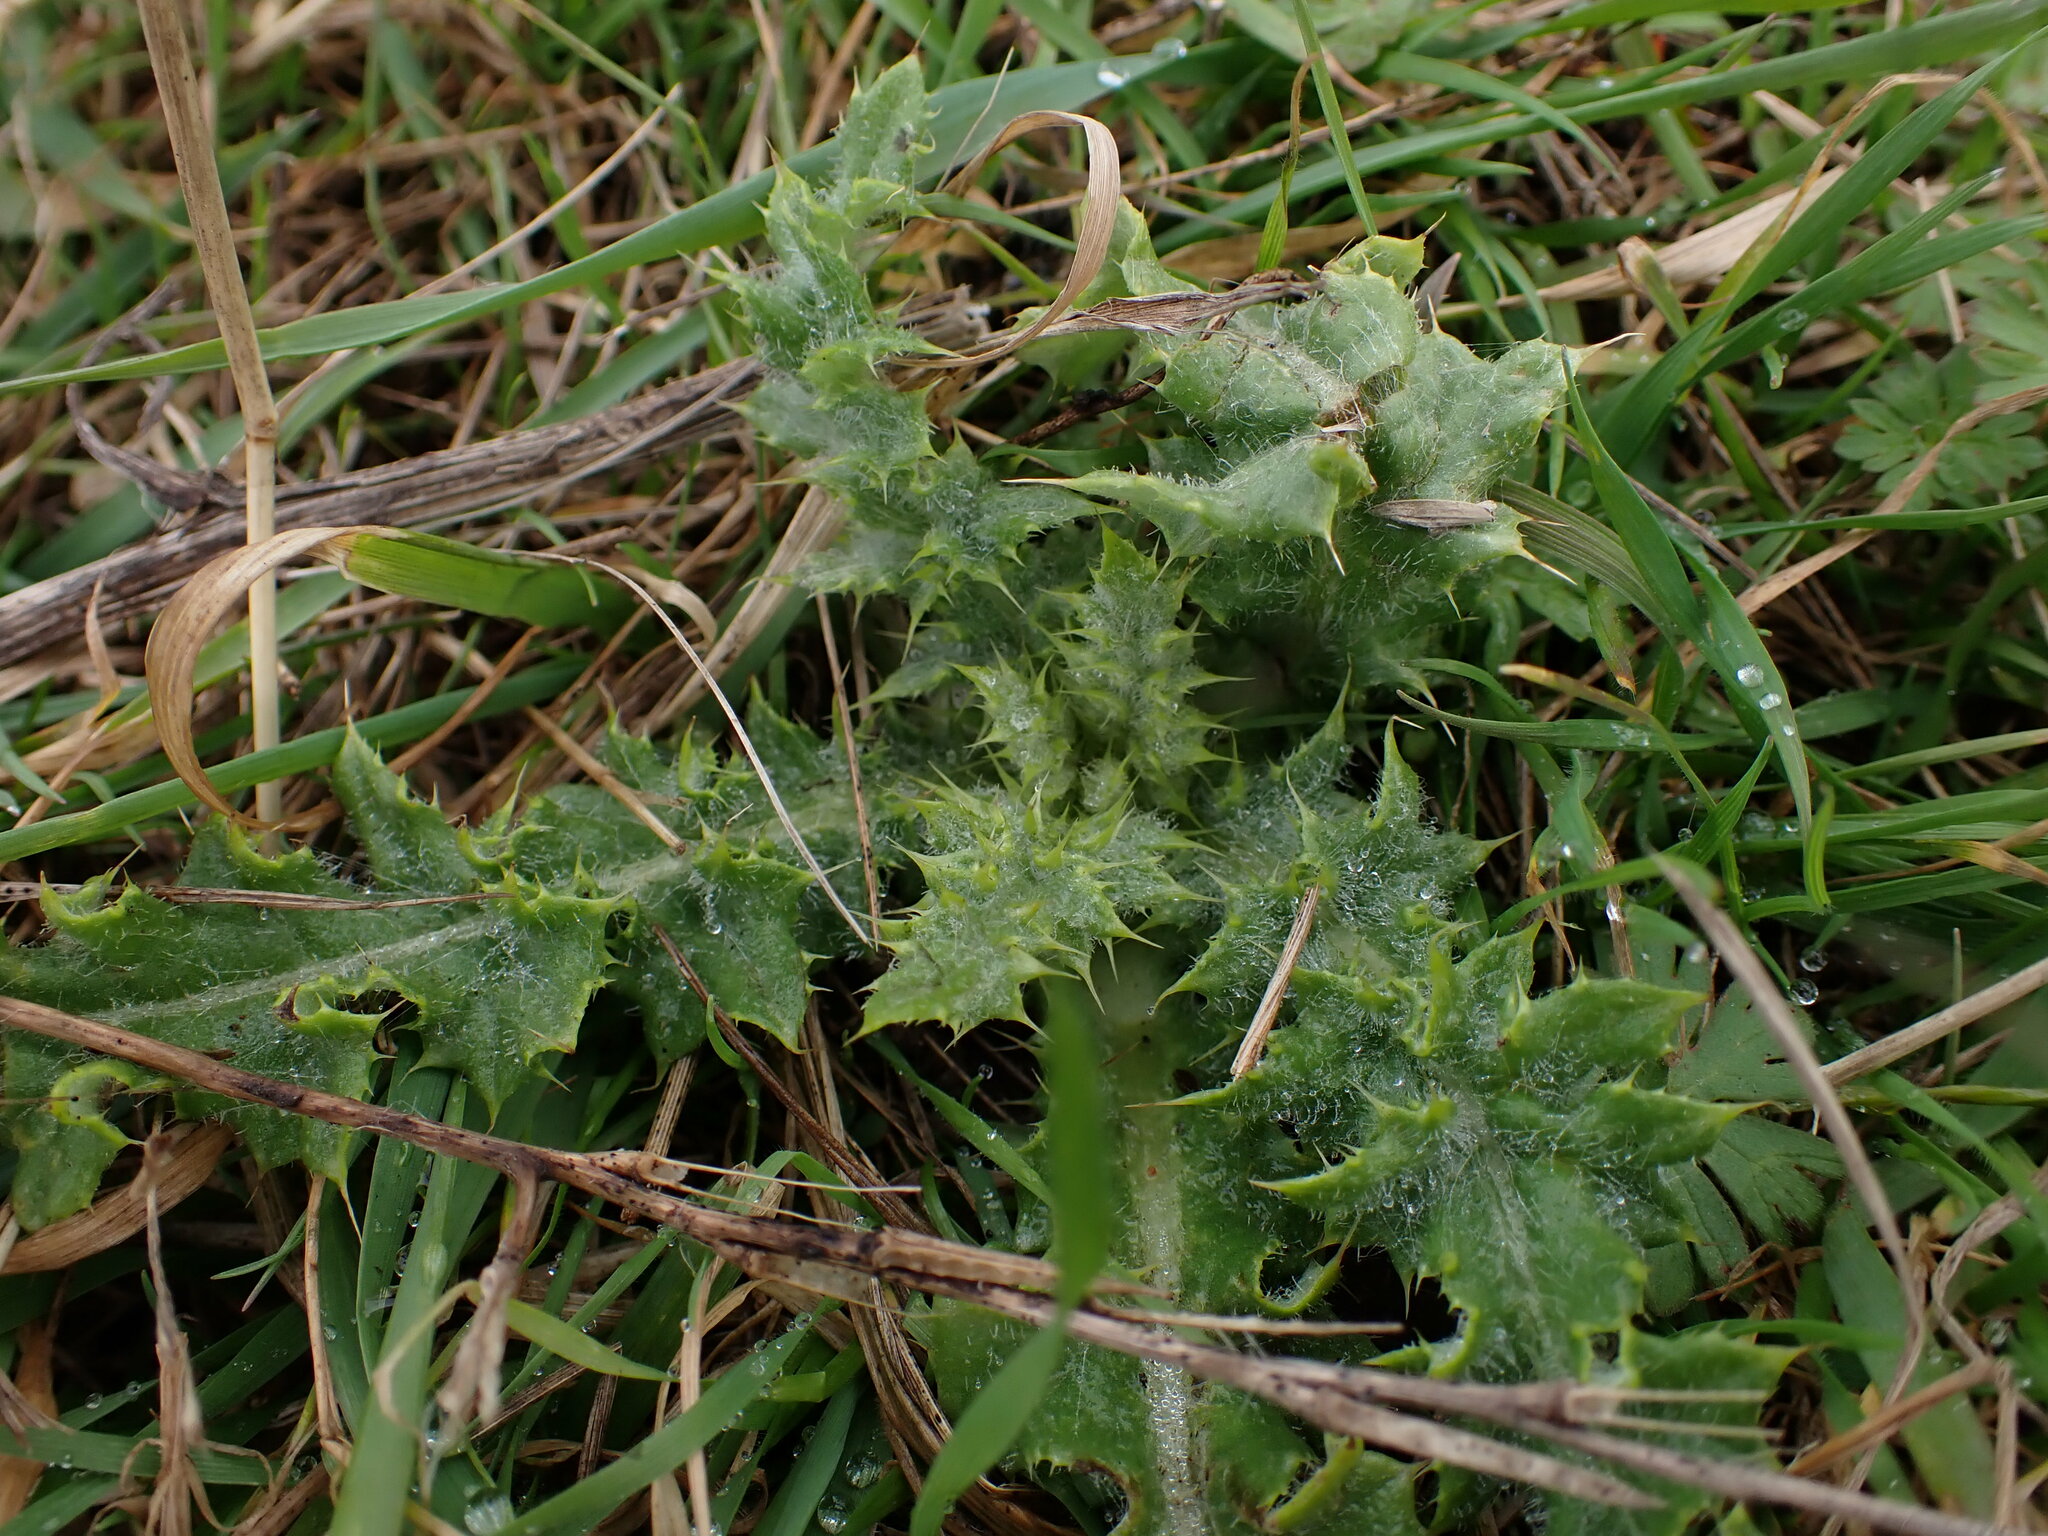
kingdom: Plantae
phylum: Tracheophyta
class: Magnoliopsida
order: Asterales
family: Asteraceae
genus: Cirsium
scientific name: Cirsium arvense
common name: Creeping thistle
